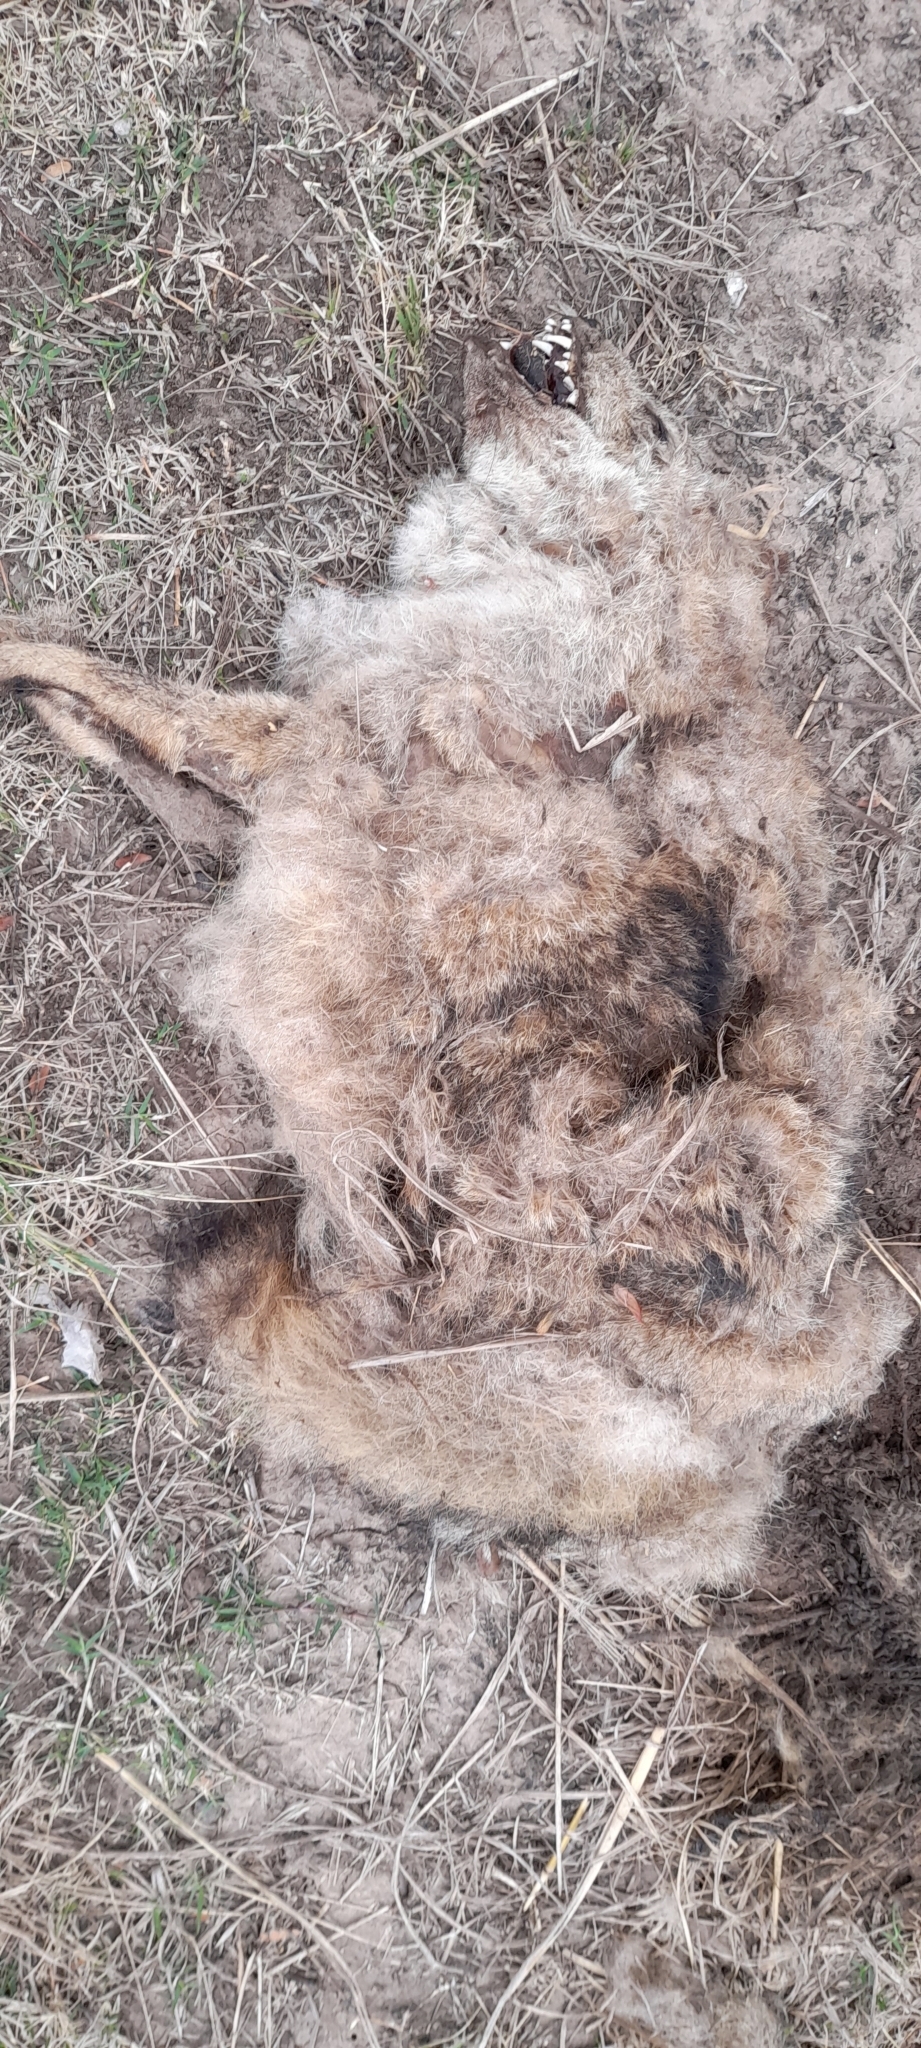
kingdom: Animalia
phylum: Chordata
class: Mammalia
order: Carnivora
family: Canidae
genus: Lycalopex
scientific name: Lycalopex gymnocercus
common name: Pampas fox
